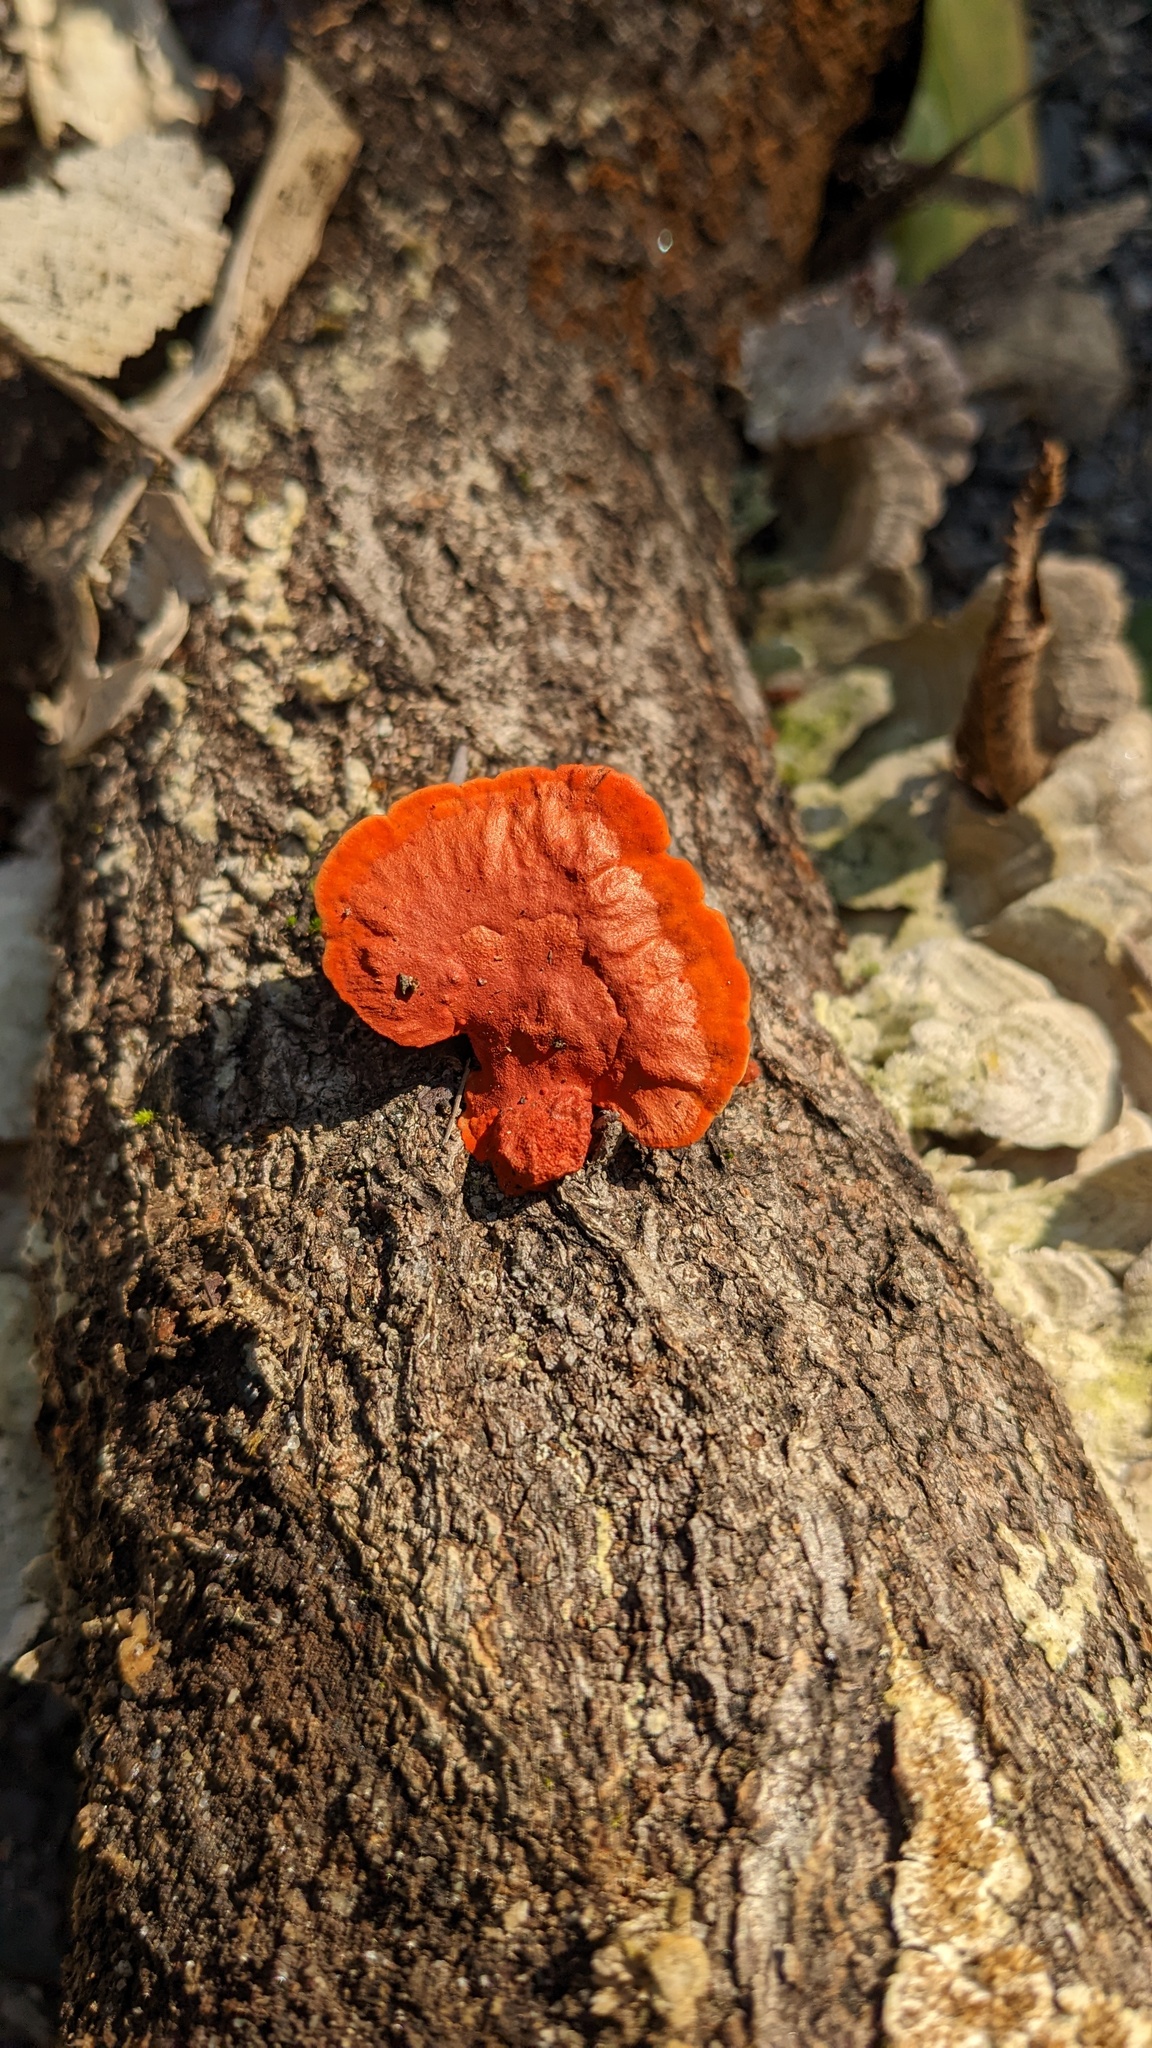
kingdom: Fungi
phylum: Basidiomycota
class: Agaricomycetes
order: Polyporales
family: Polyporaceae
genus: Trametes
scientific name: Trametes coccinea
